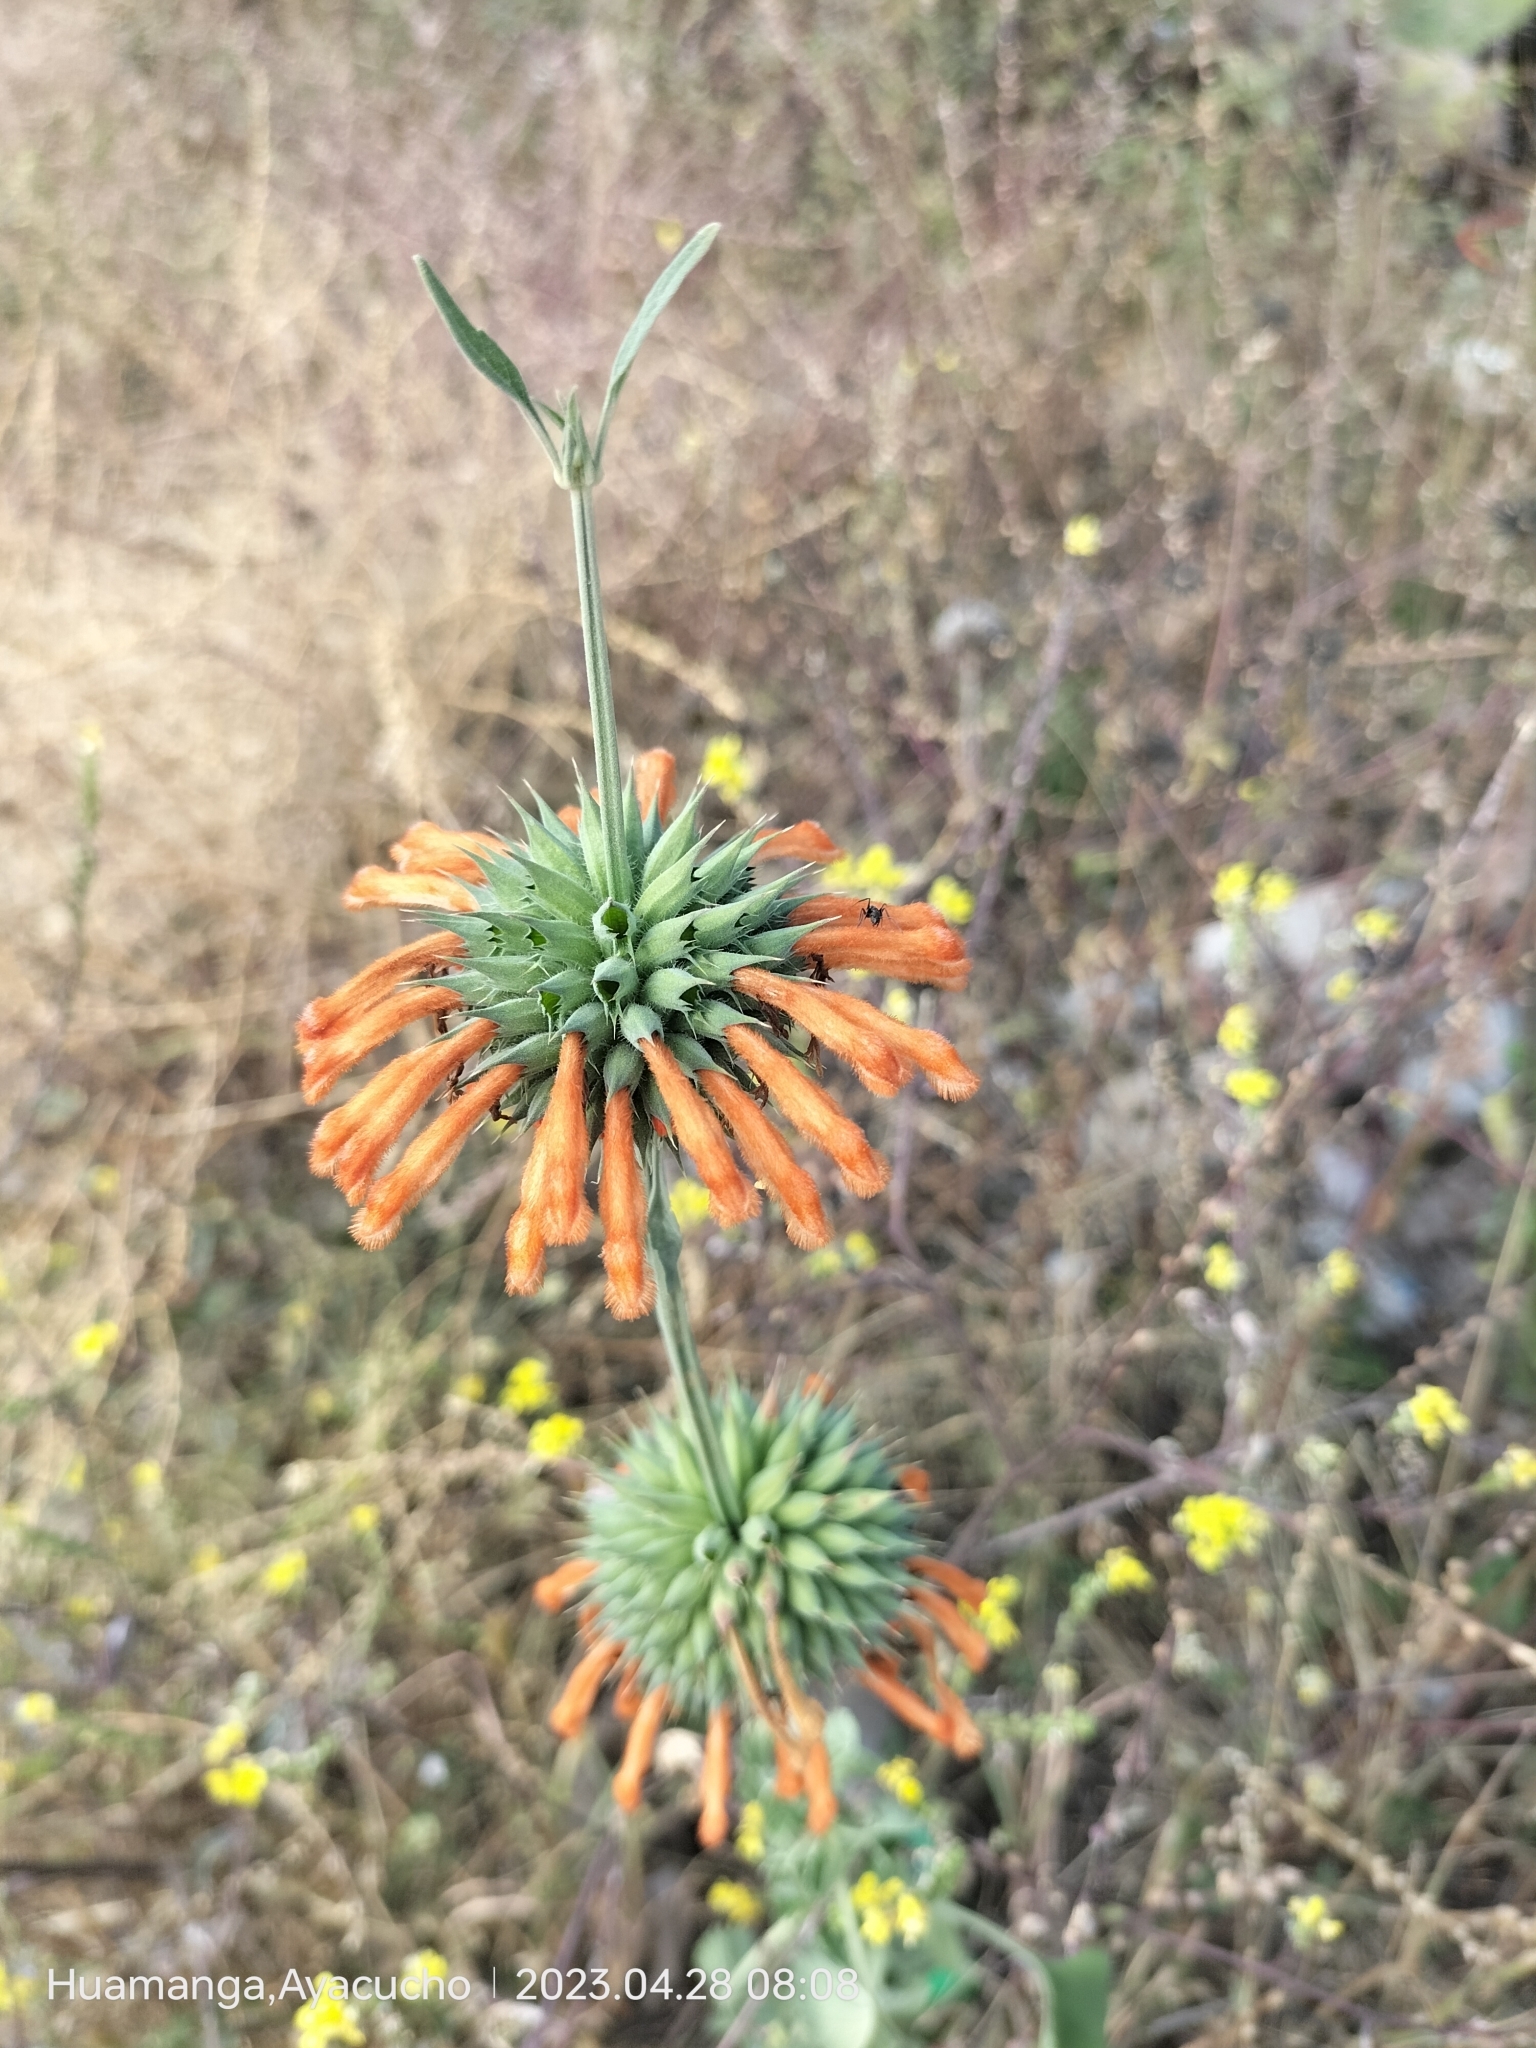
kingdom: Plantae
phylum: Tracheophyta
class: Magnoliopsida
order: Lamiales
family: Lamiaceae
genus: Leonotis
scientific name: Leonotis nepetifolia
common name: Christmas candlestick
